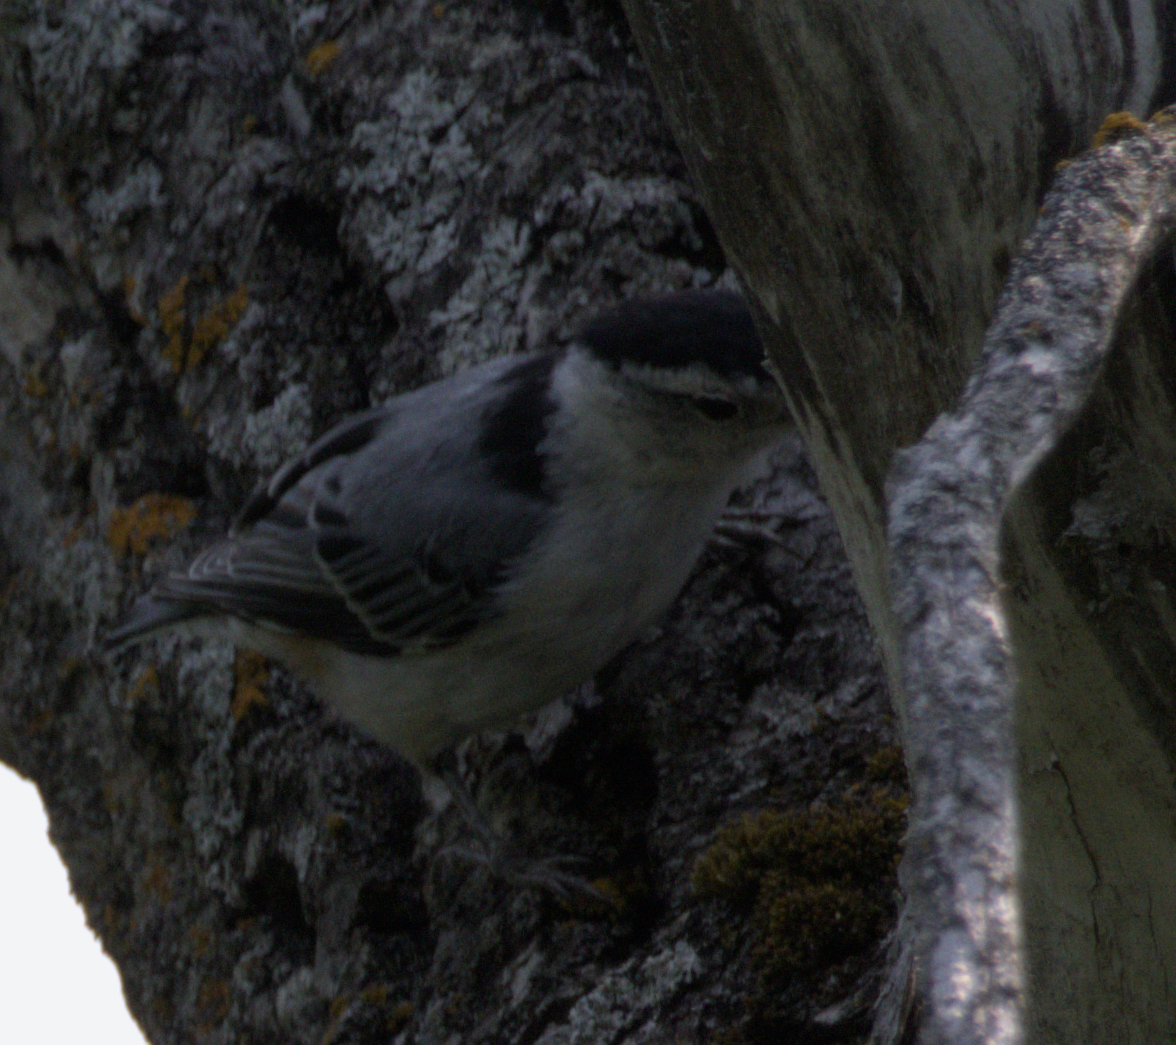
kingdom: Animalia
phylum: Chordata
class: Aves
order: Passeriformes
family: Sittidae
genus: Sitta
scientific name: Sitta carolinensis
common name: White-breasted nuthatch
